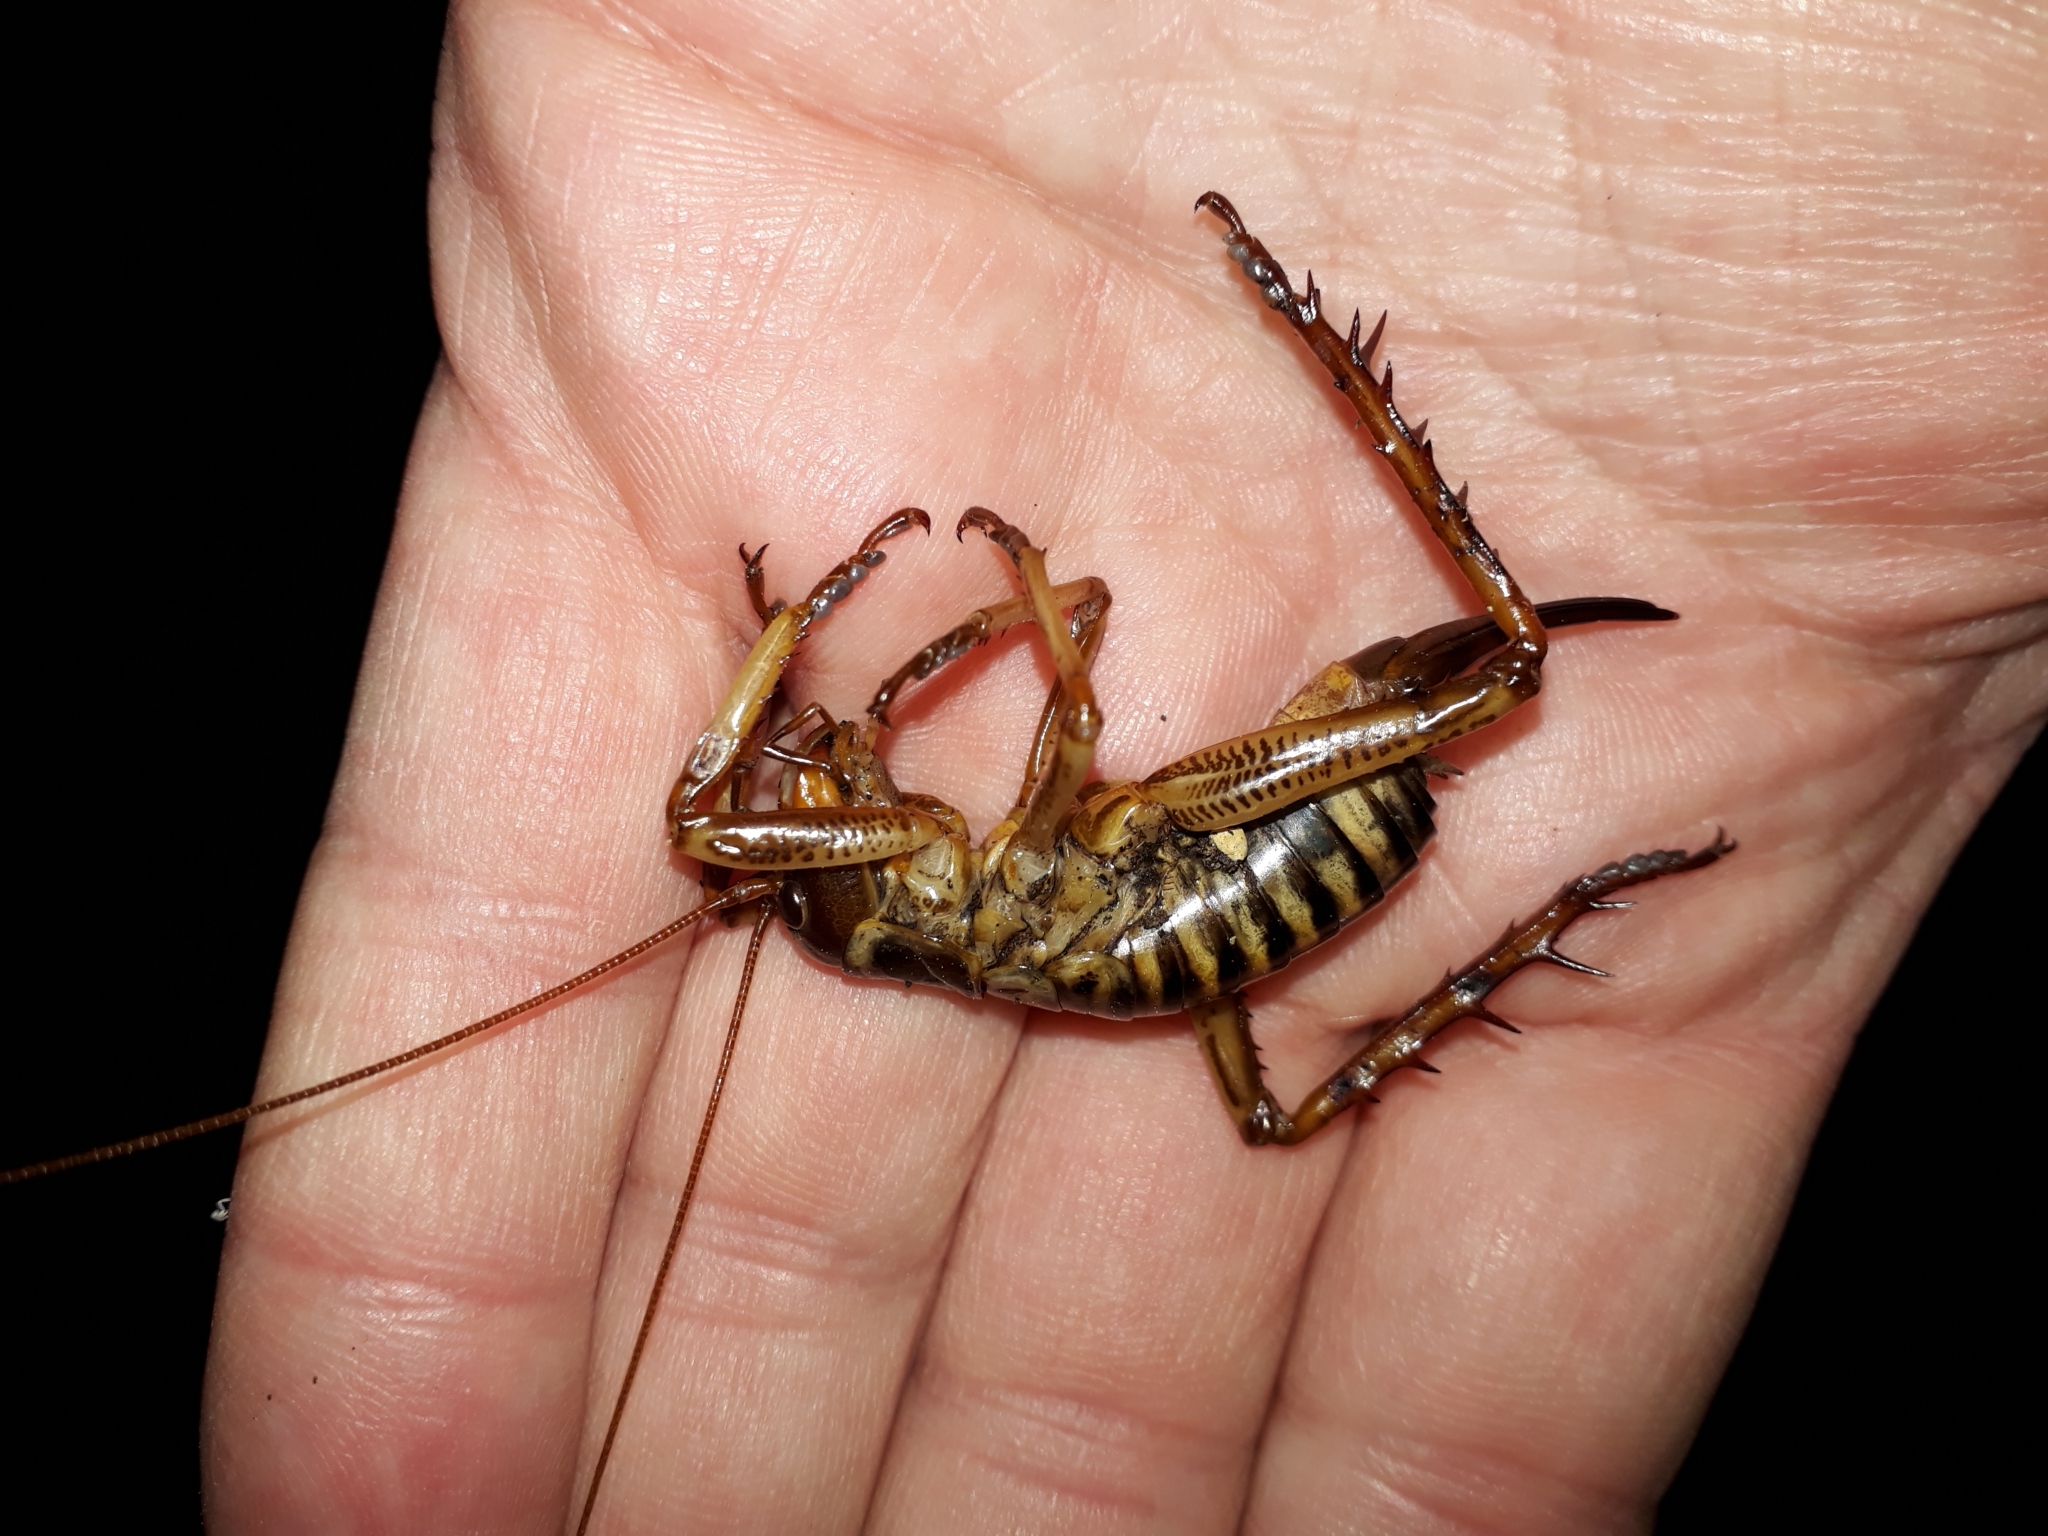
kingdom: Animalia
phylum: Arthropoda
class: Insecta
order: Orthoptera
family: Anostostomatidae
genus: Hemideina
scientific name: Hemideina crassidens
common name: Wellington tree weta
